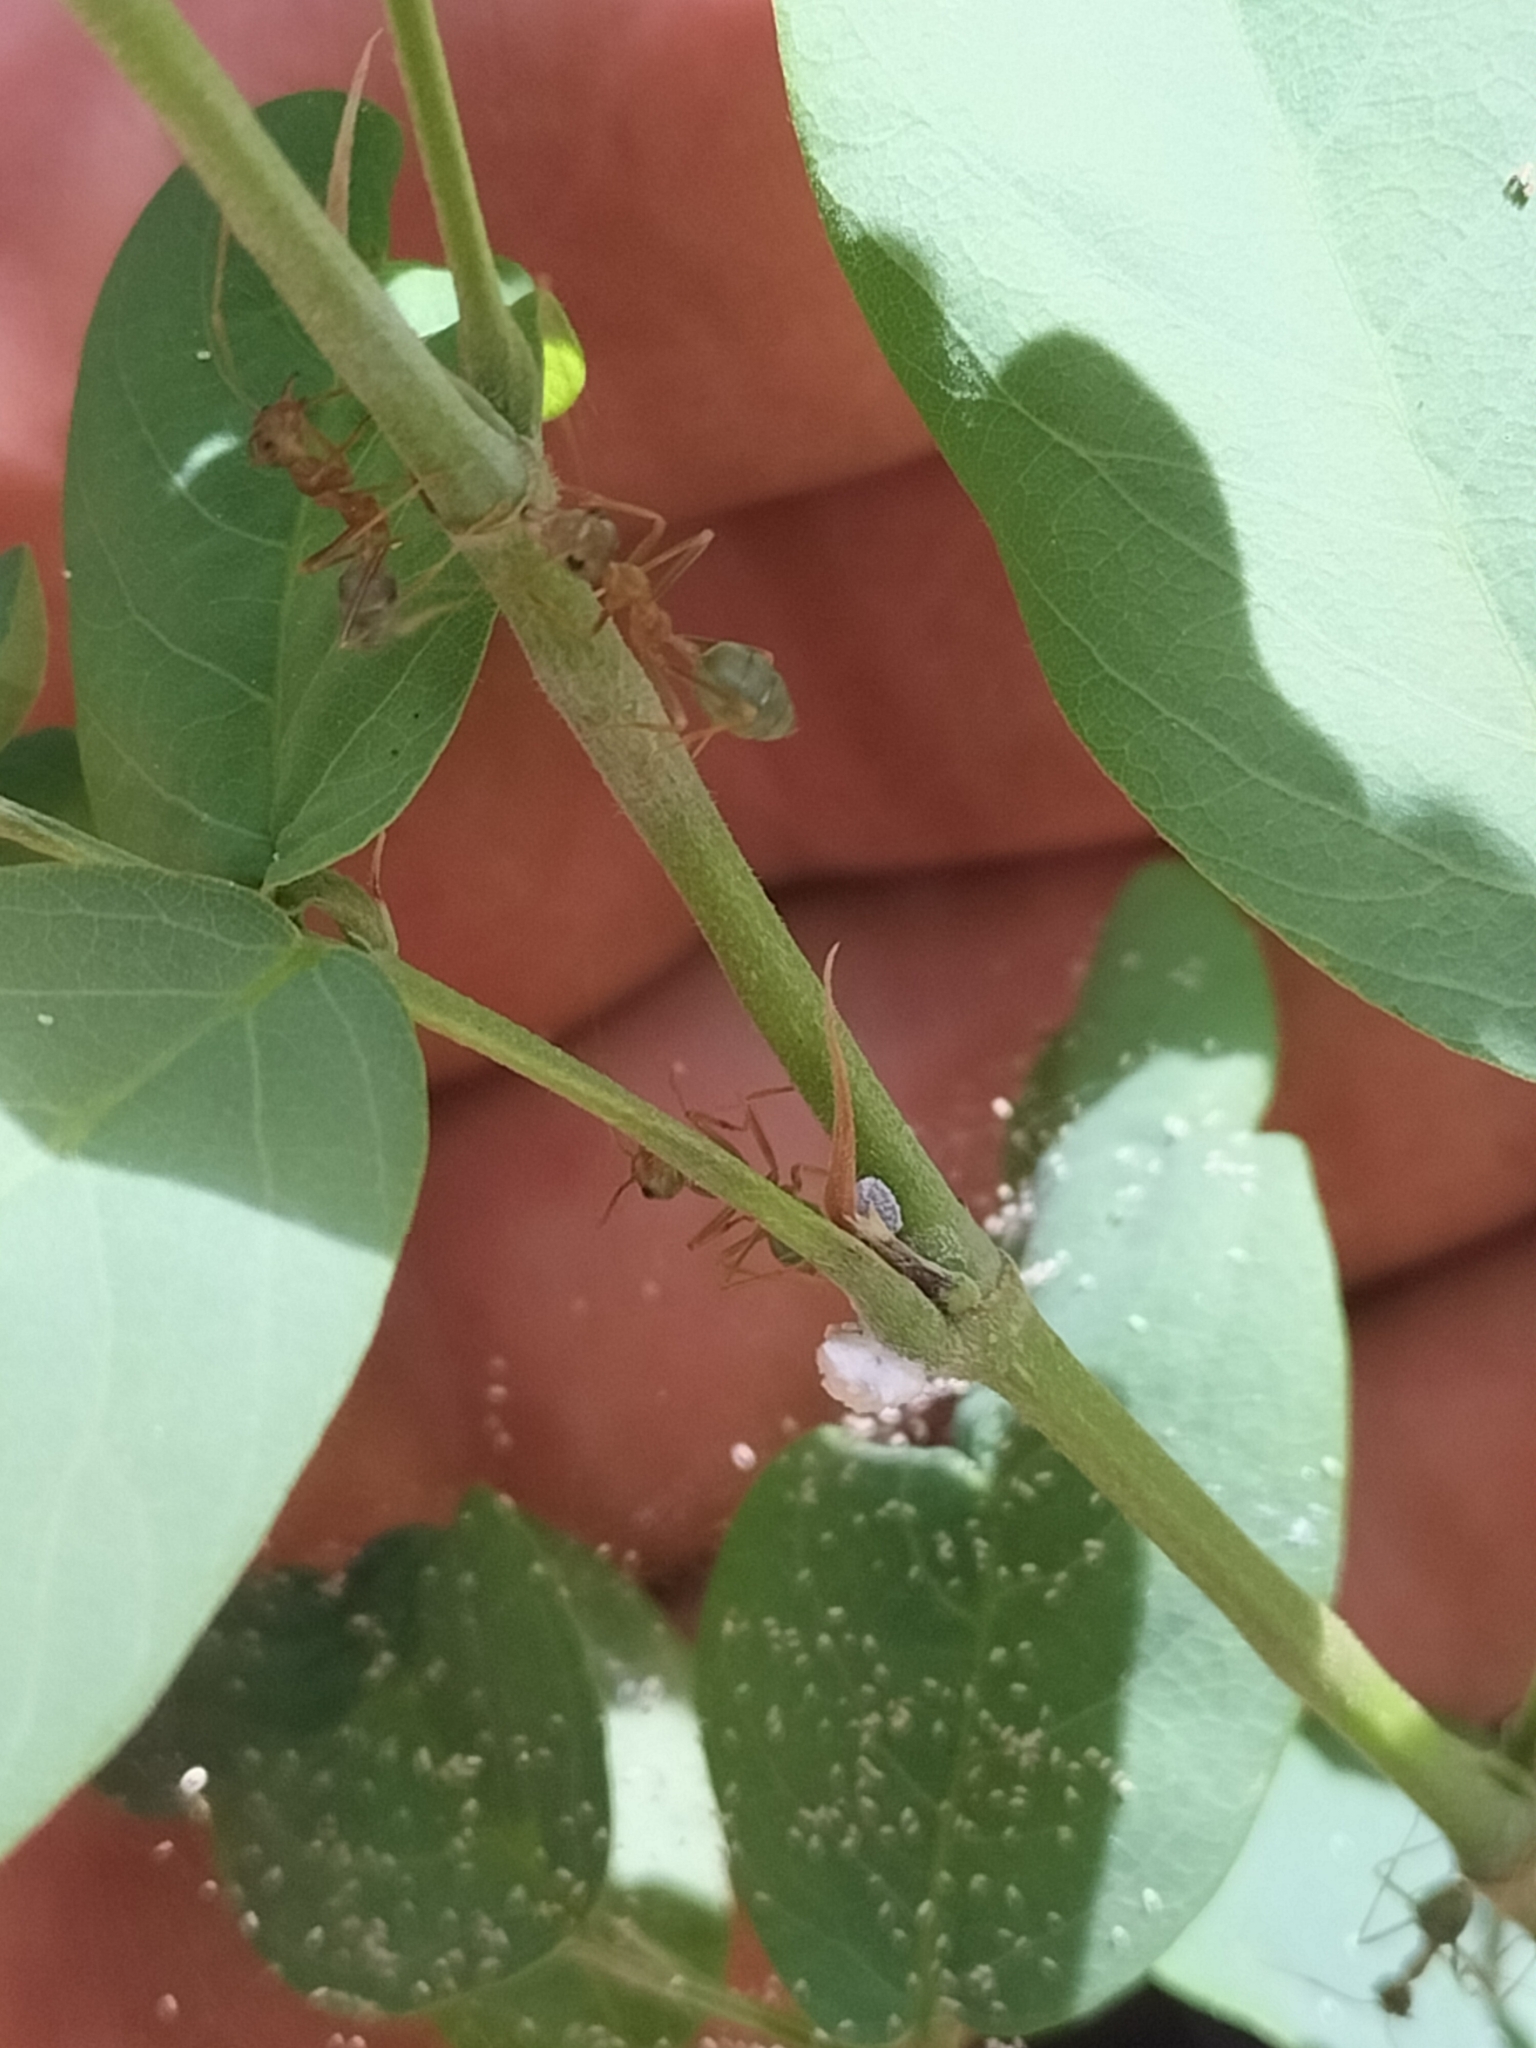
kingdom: Animalia
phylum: Arthropoda
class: Insecta
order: Hymenoptera
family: Formicidae
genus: Oecophylla
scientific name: Oecophylla smaragdina
